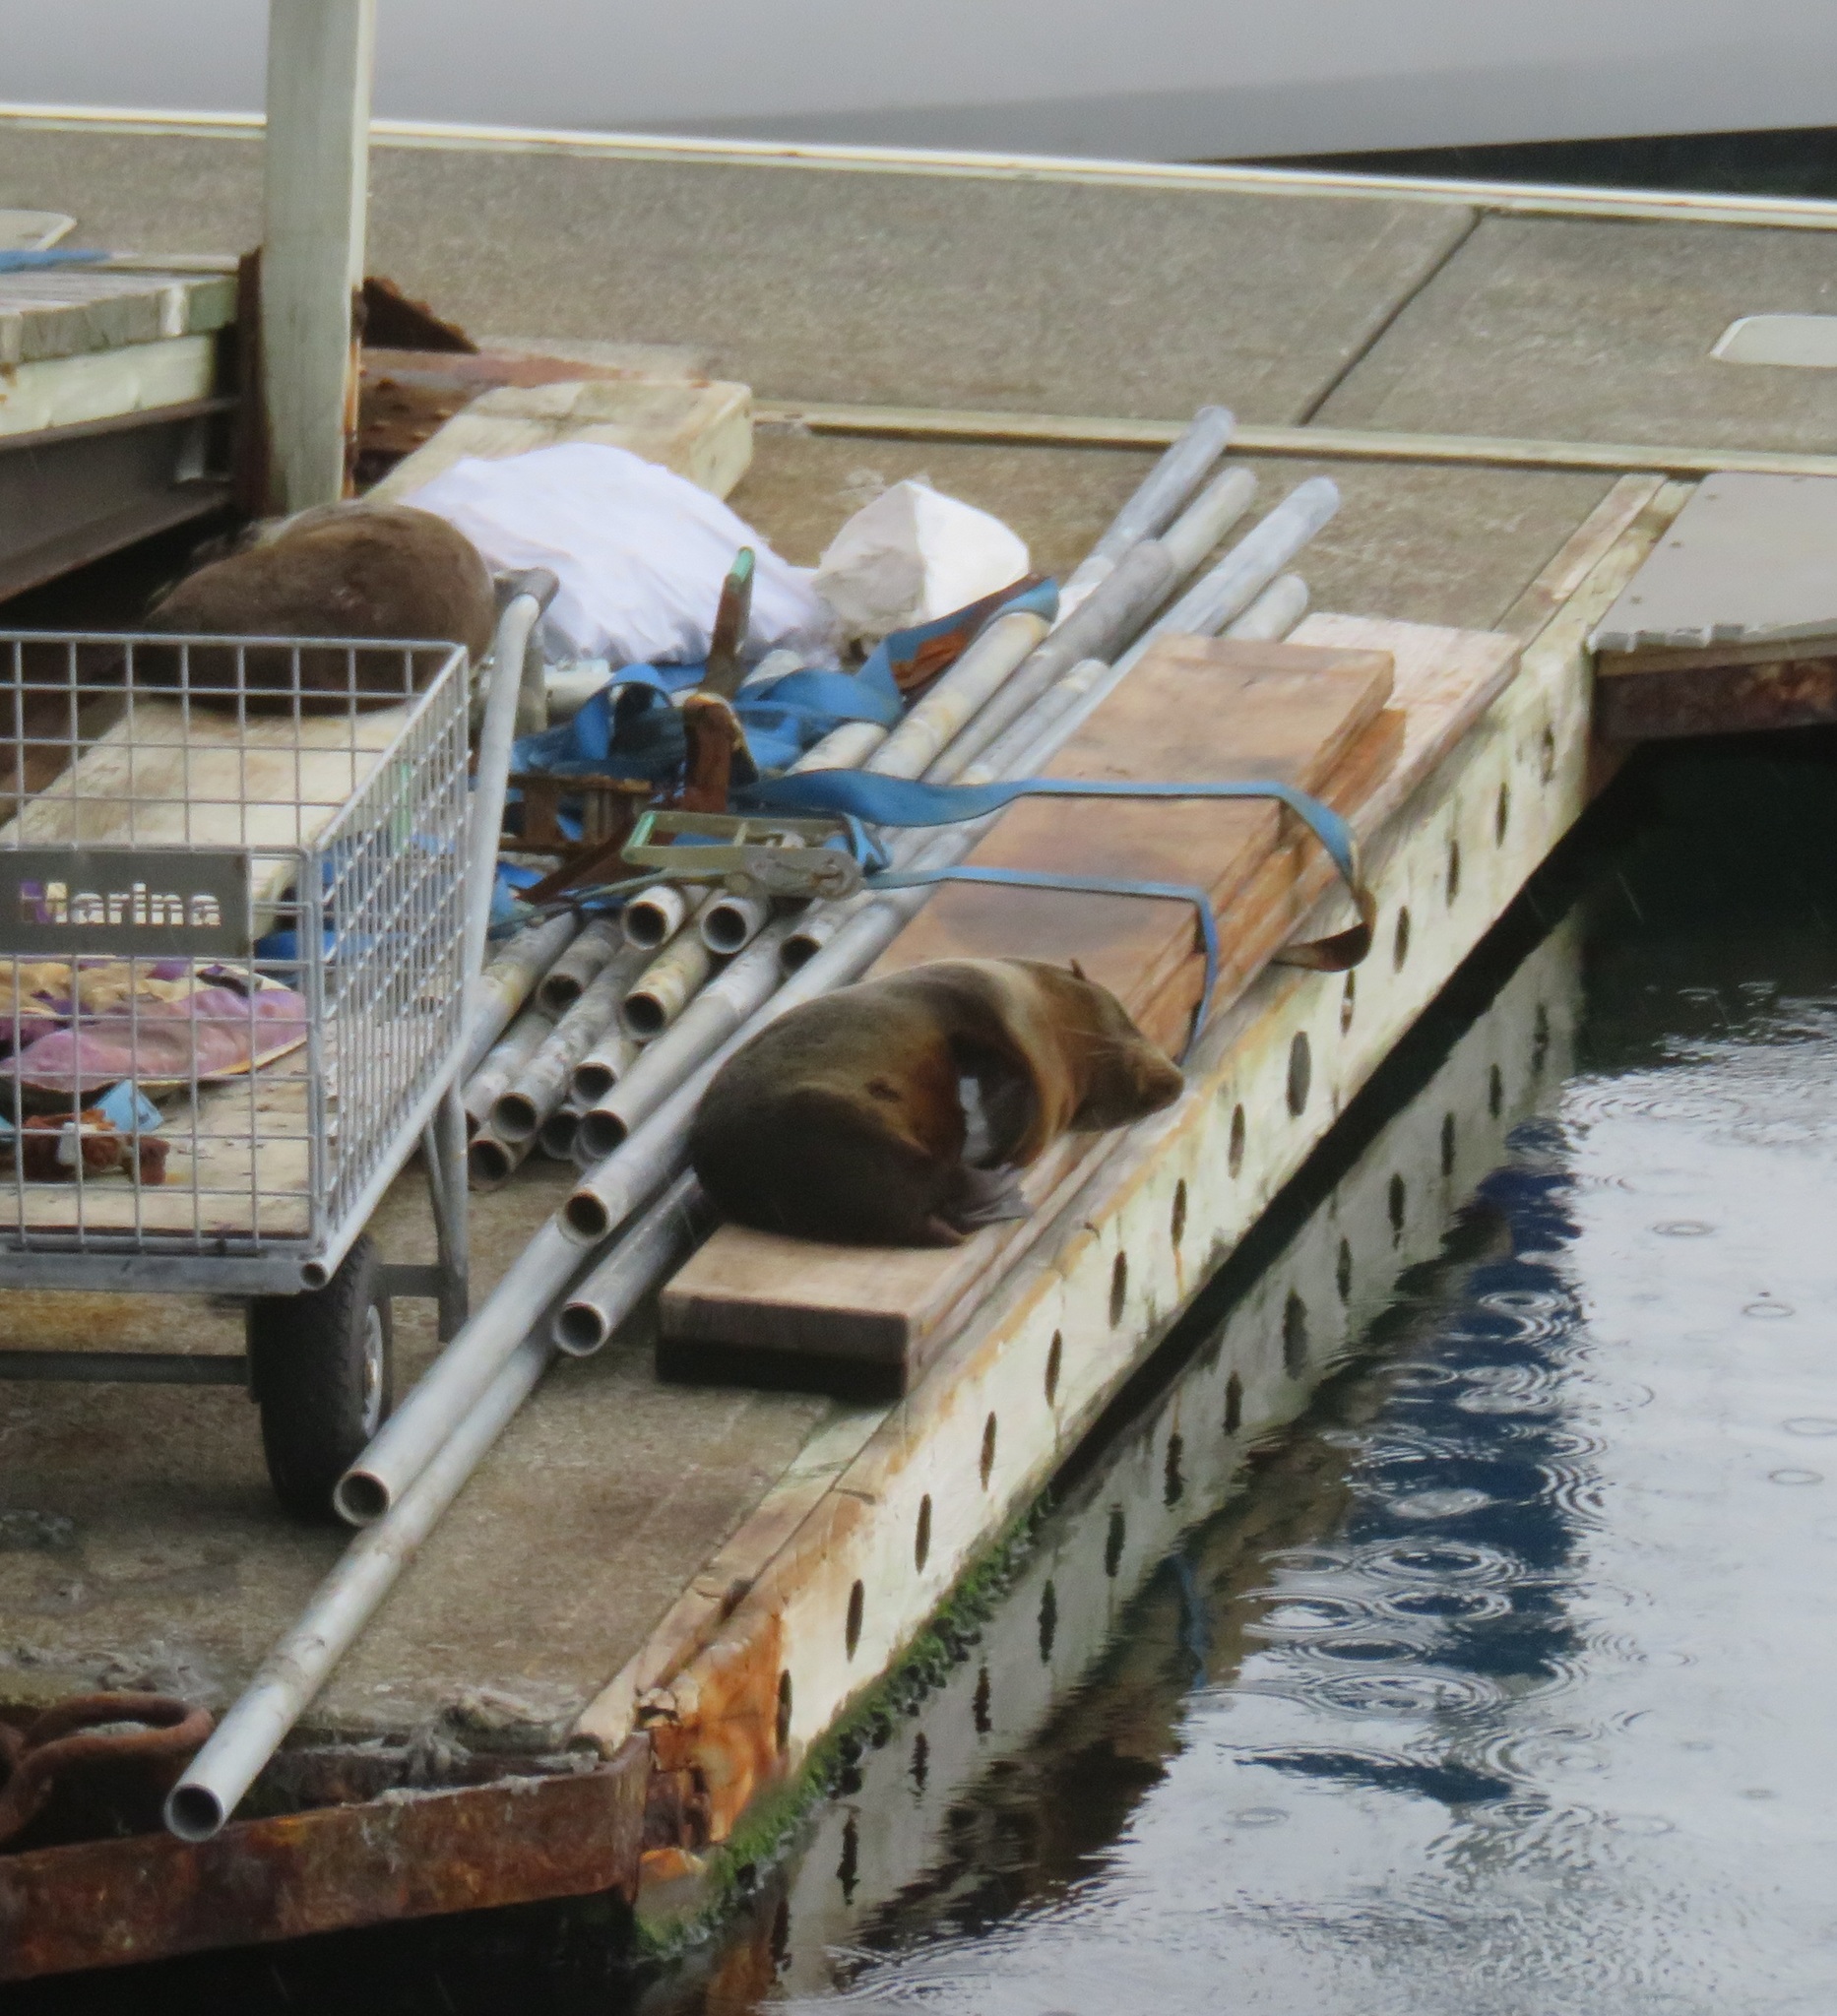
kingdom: Animalia
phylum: Chordata
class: Mammalia
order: Carnivora
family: Otariidae
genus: Arctocephalus
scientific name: Arctocephalus forsteri
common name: New zealand fur seal
